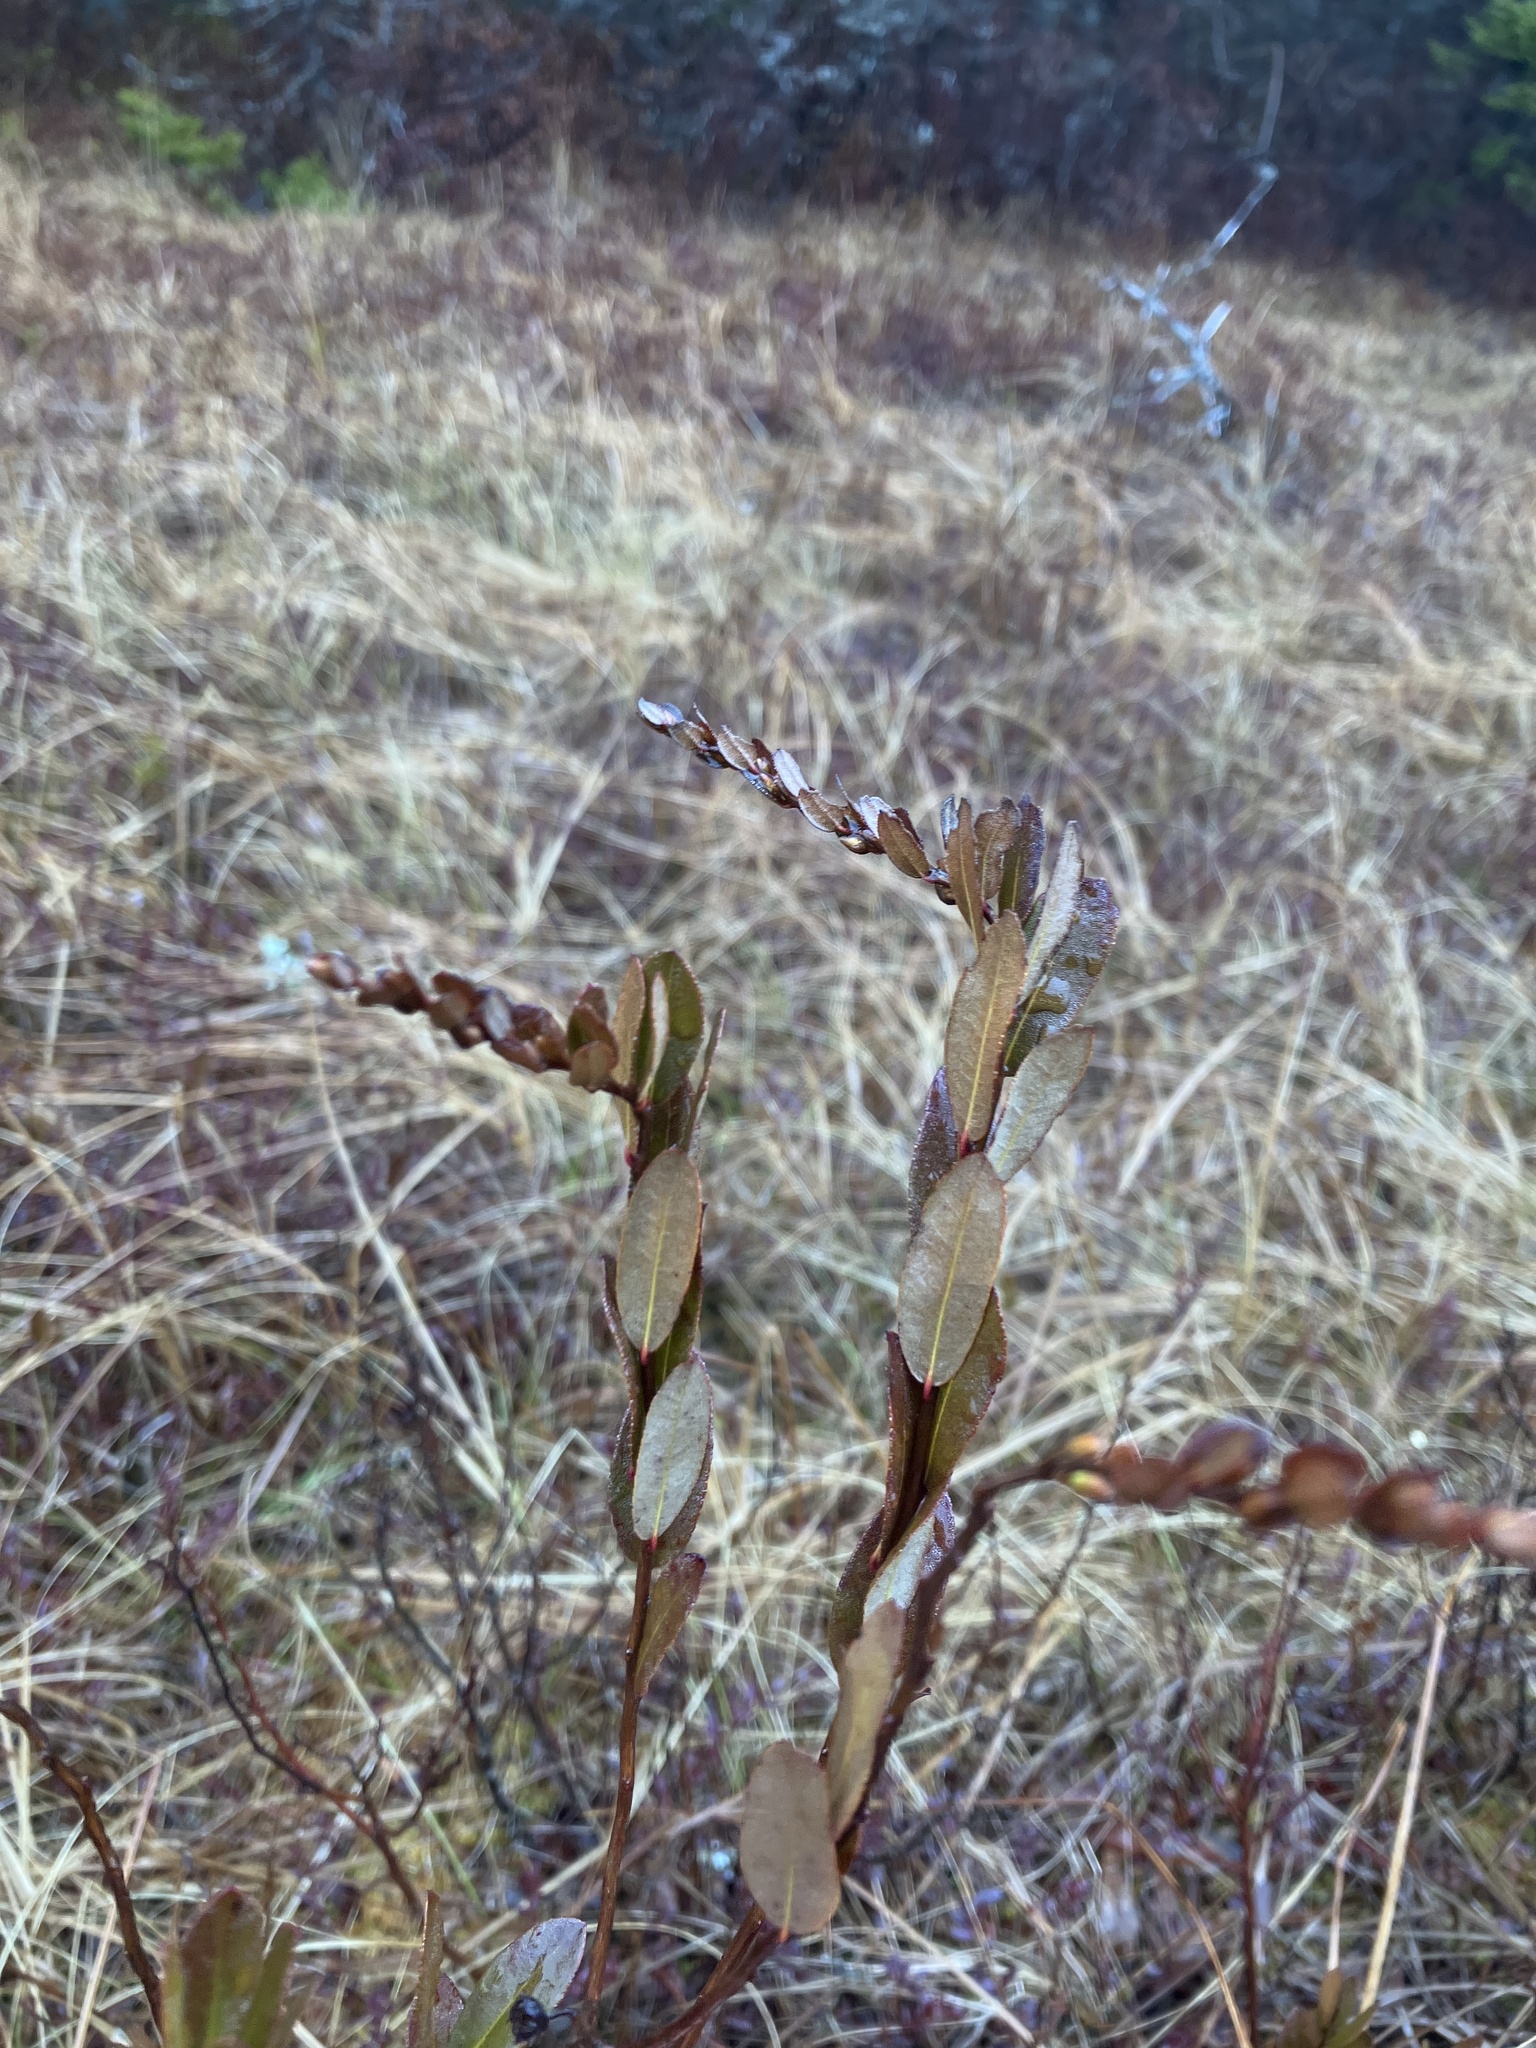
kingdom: Plantae
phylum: Tracheophyta
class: Magnoliopsida
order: Ericales
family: Ericaceae
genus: Chamaedaphne
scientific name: Chamaedaphne calyculata
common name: Leatherleaf
